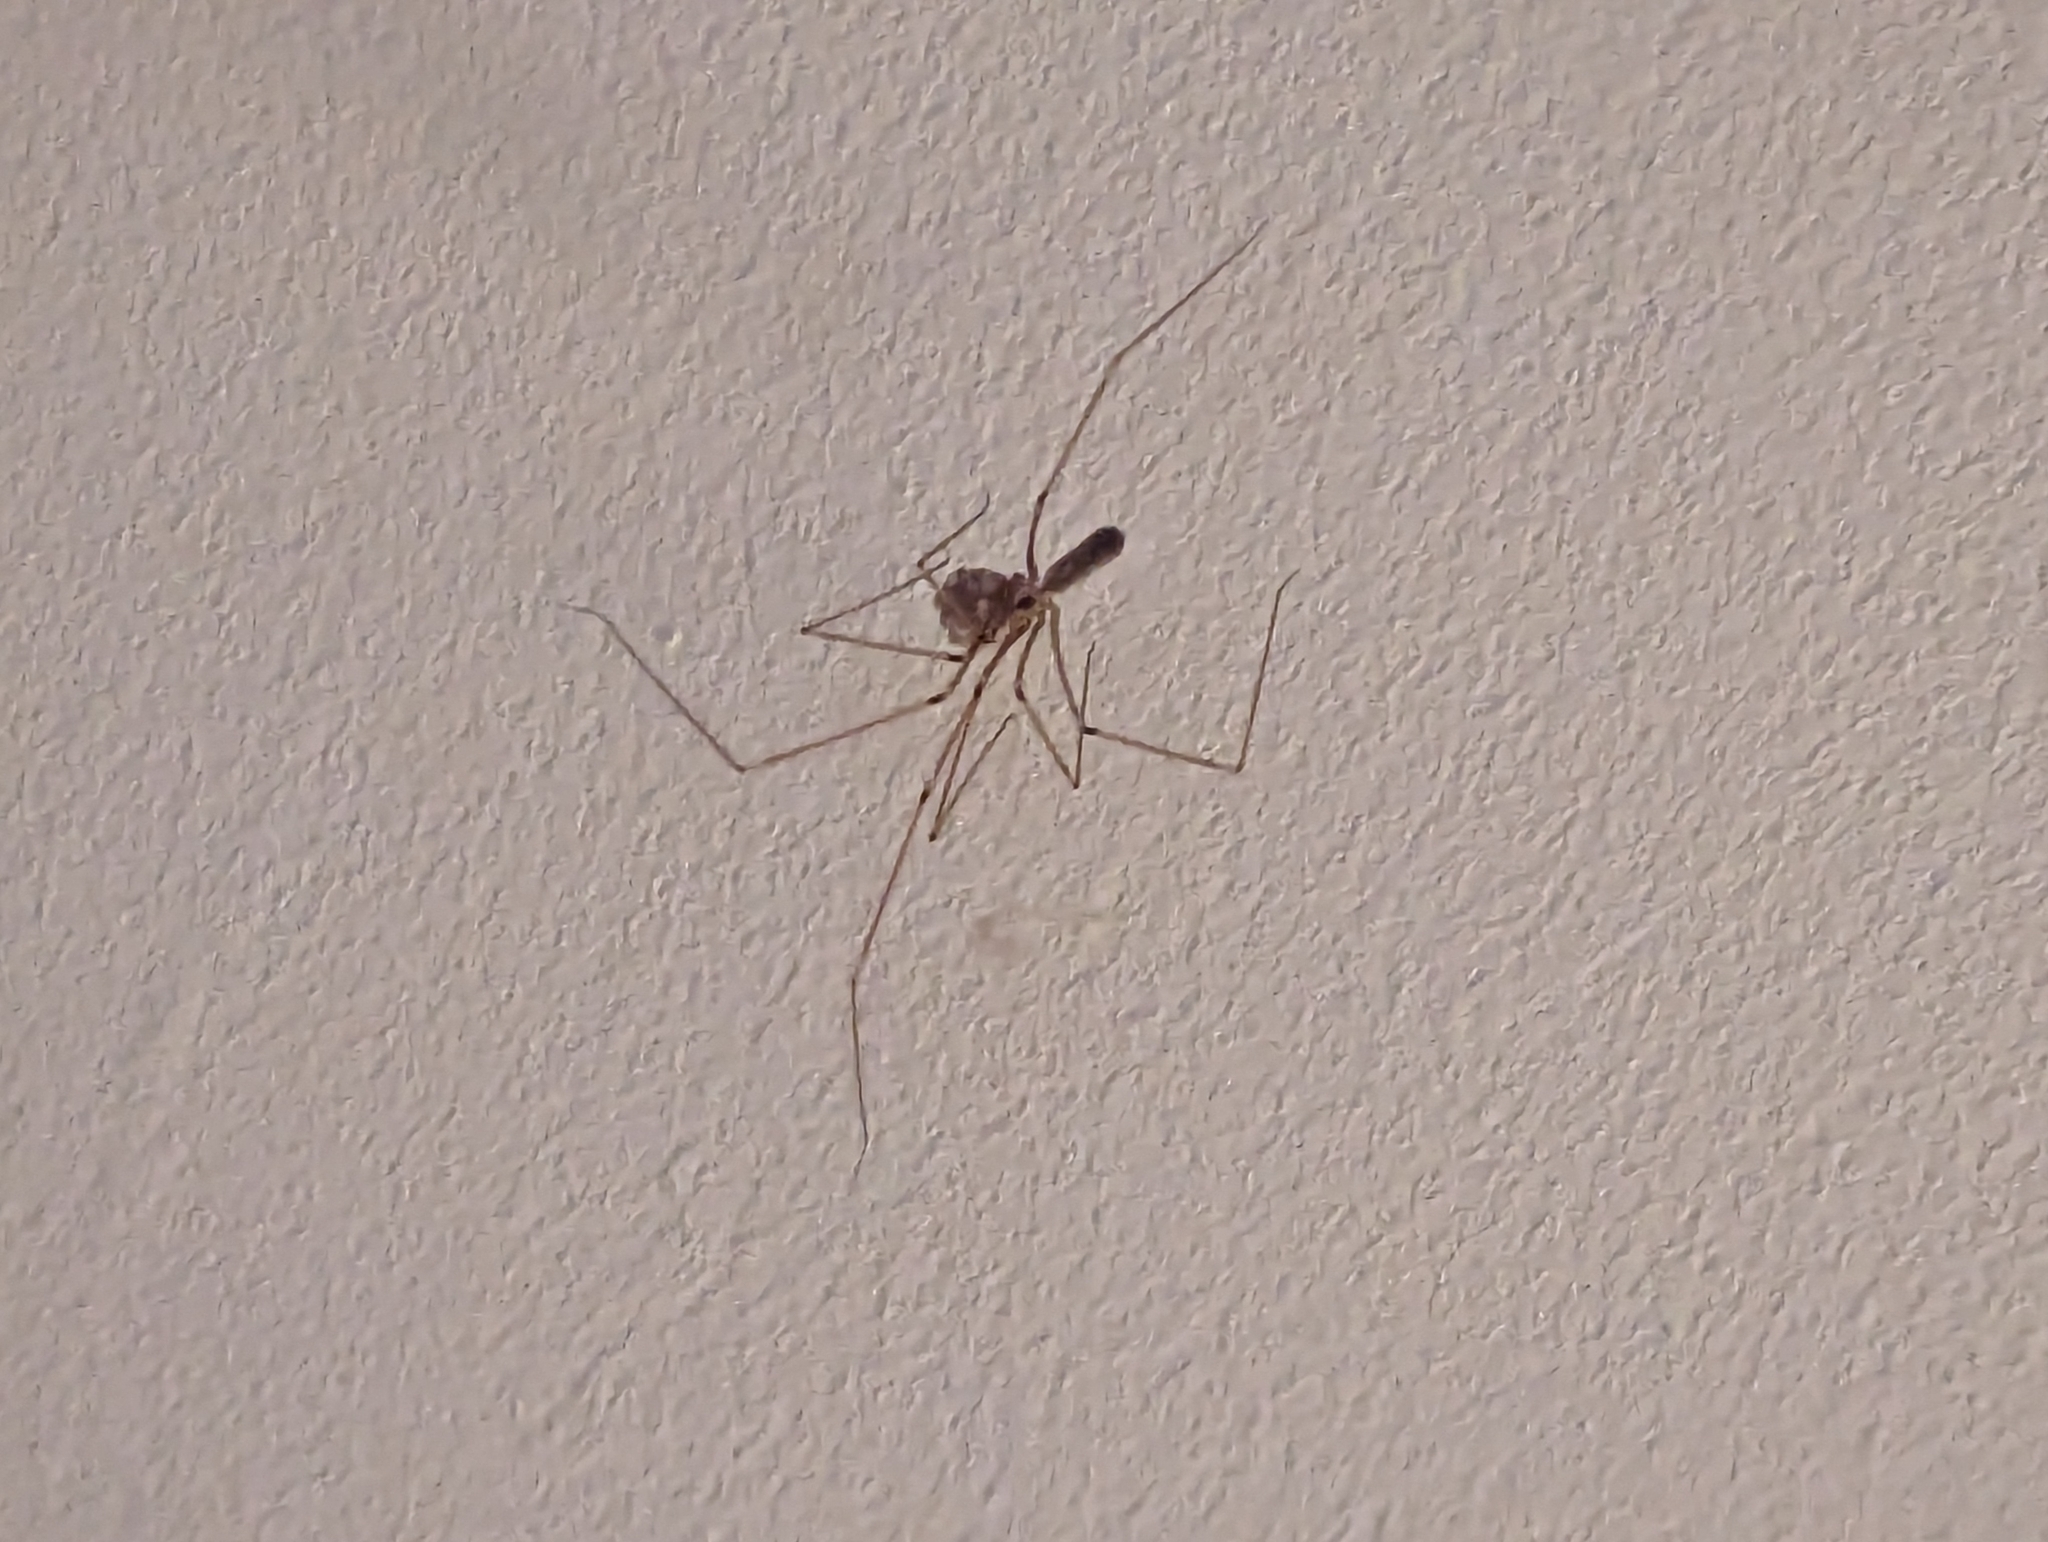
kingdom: Animalia
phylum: Arthropoda
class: Arachnida
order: Araneae
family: Pholcidae
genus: Pholcus
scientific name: Pholcus phalangioides
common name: Longbodied cellar spider
